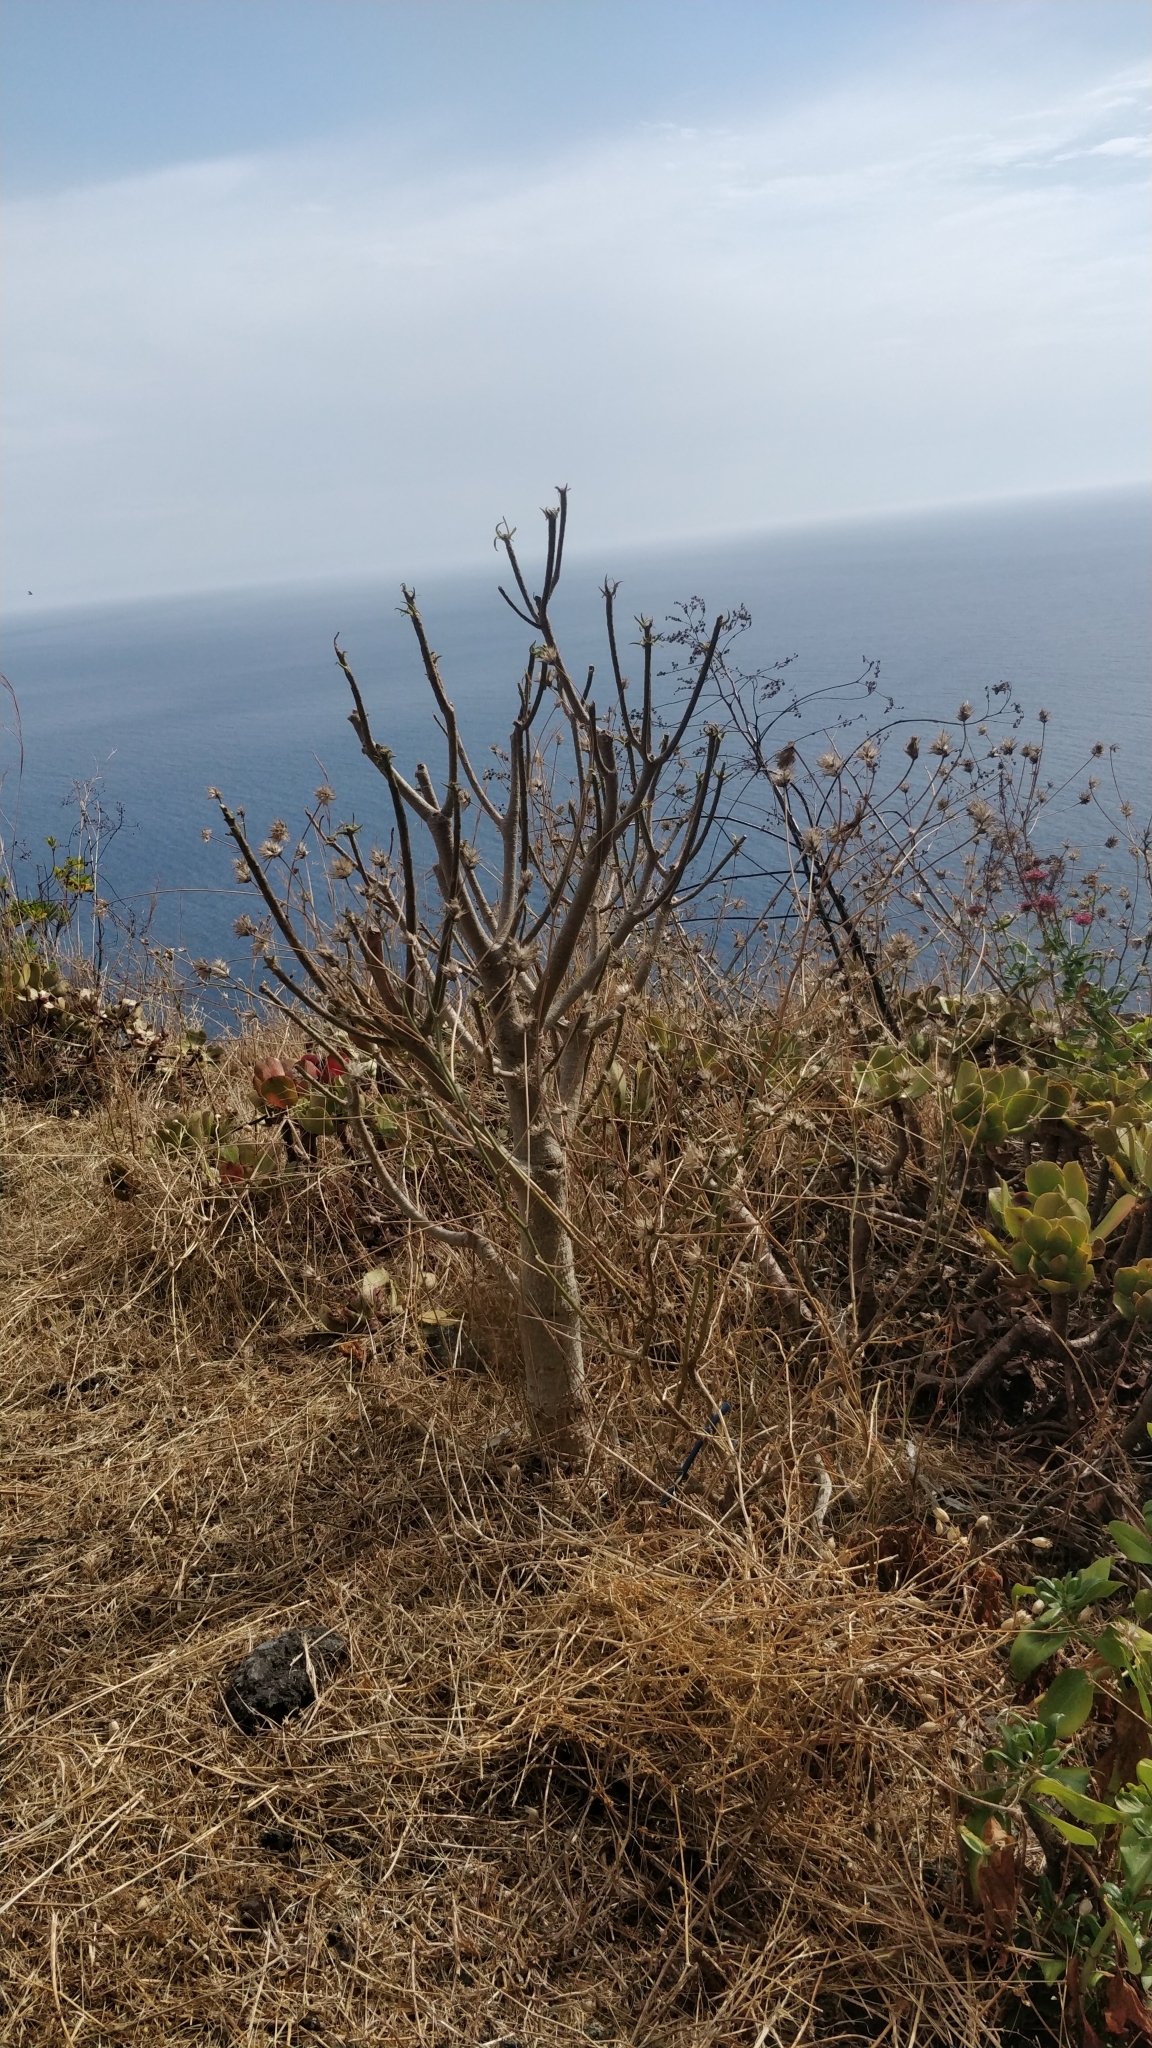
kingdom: Plantae
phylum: Tracheophyta
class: Magnoliopsida
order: Malpighiales
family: Euphorbiaceae
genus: Euphorbia
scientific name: Euphorbia piscatoria
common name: Fish-stunning spurge
